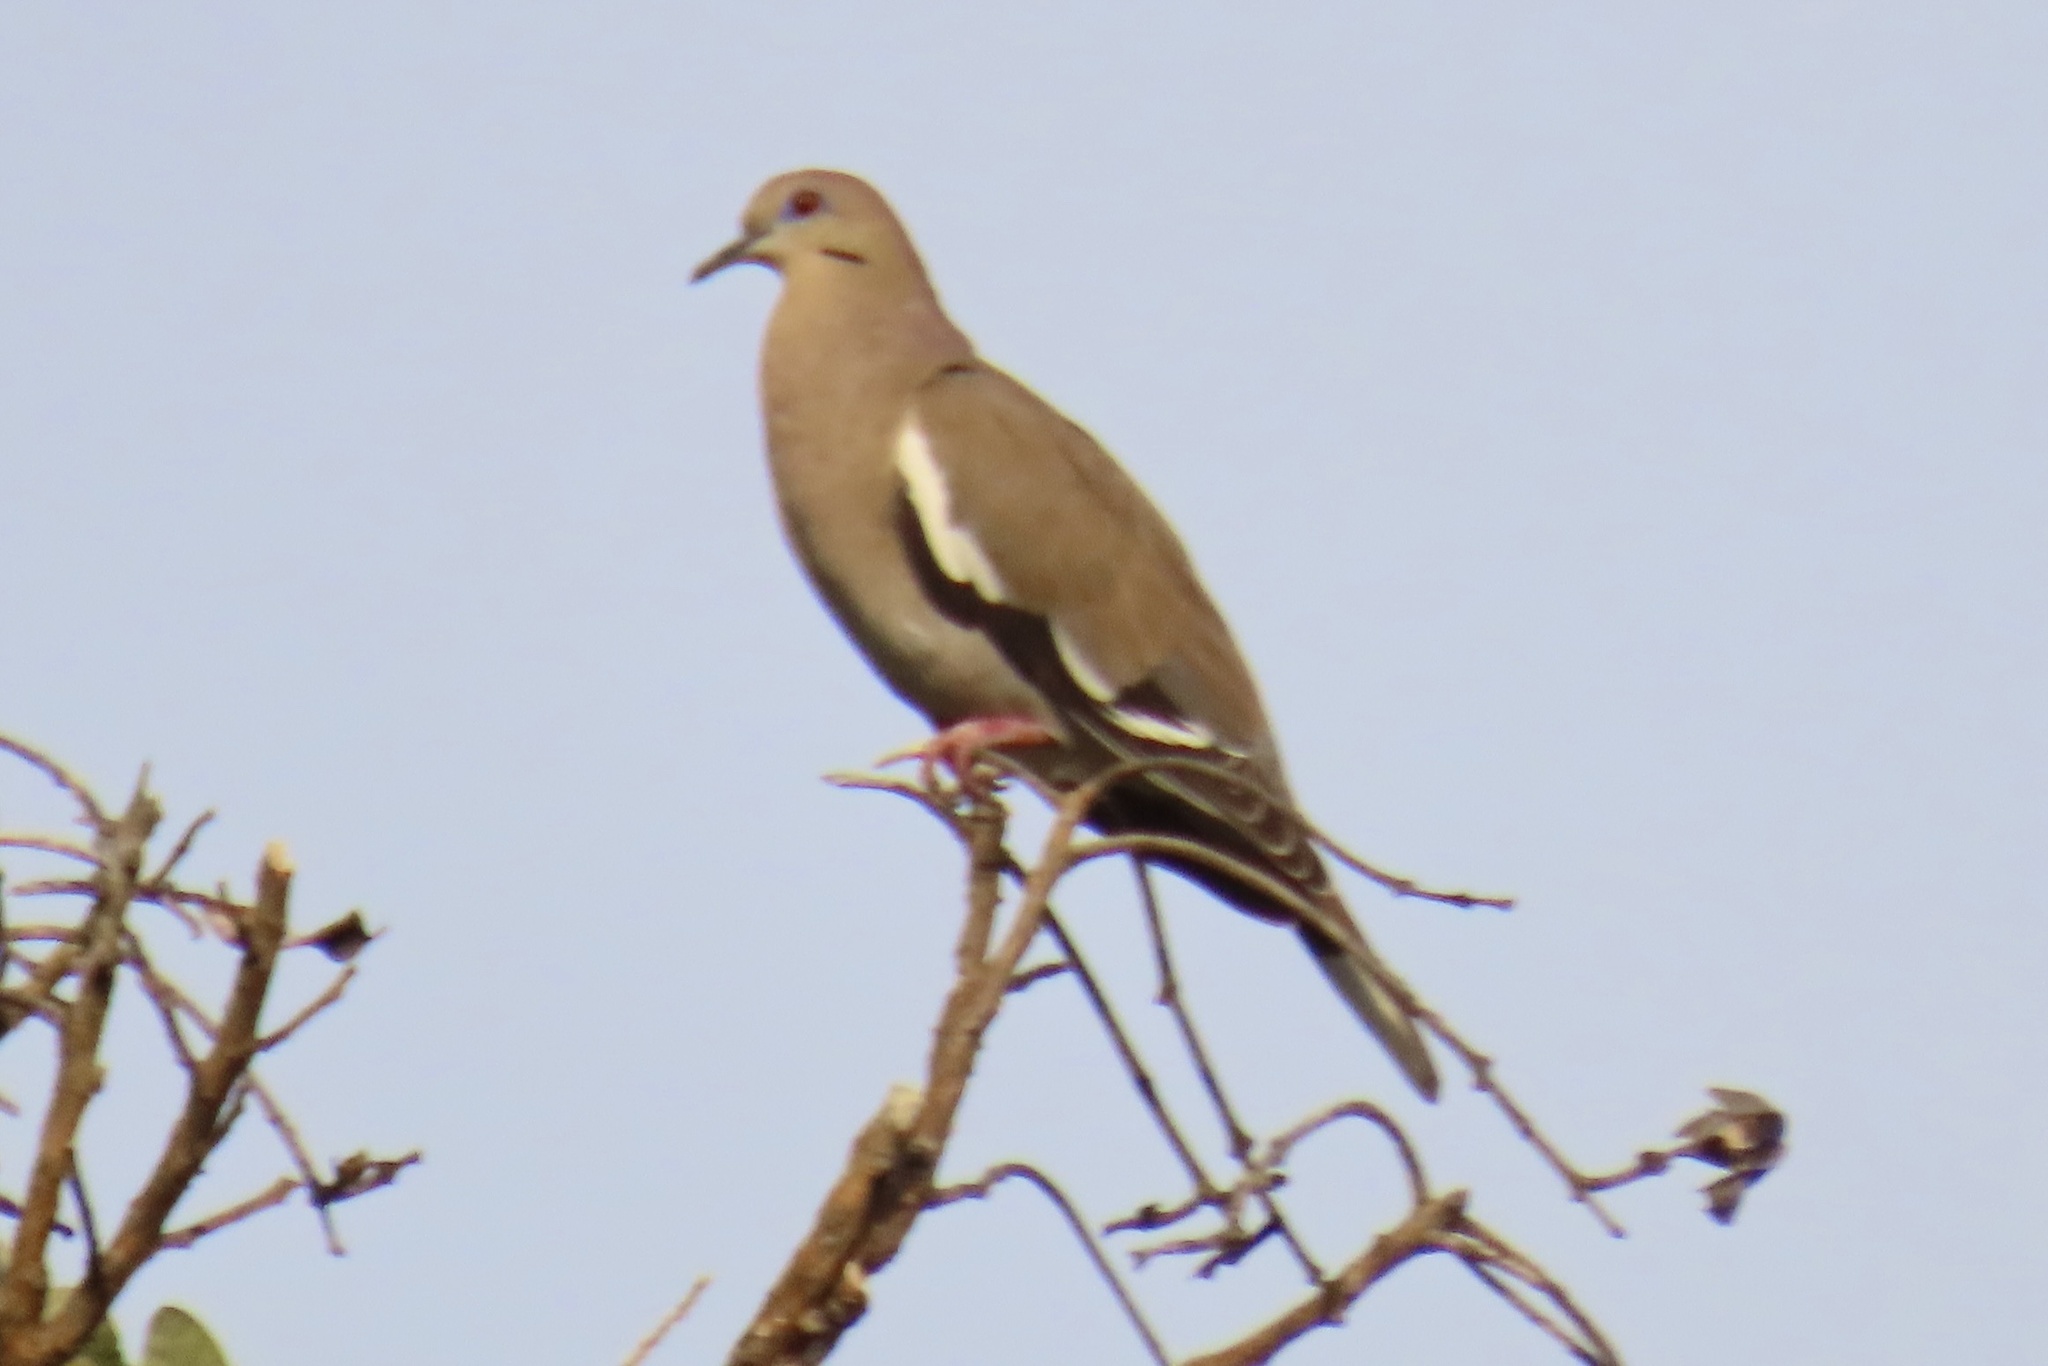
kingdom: Animalia
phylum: Chordata
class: Aves
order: Columbiformes
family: Columbidae
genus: Zenaida
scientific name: Zenaida asiatica
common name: White-winged dove
